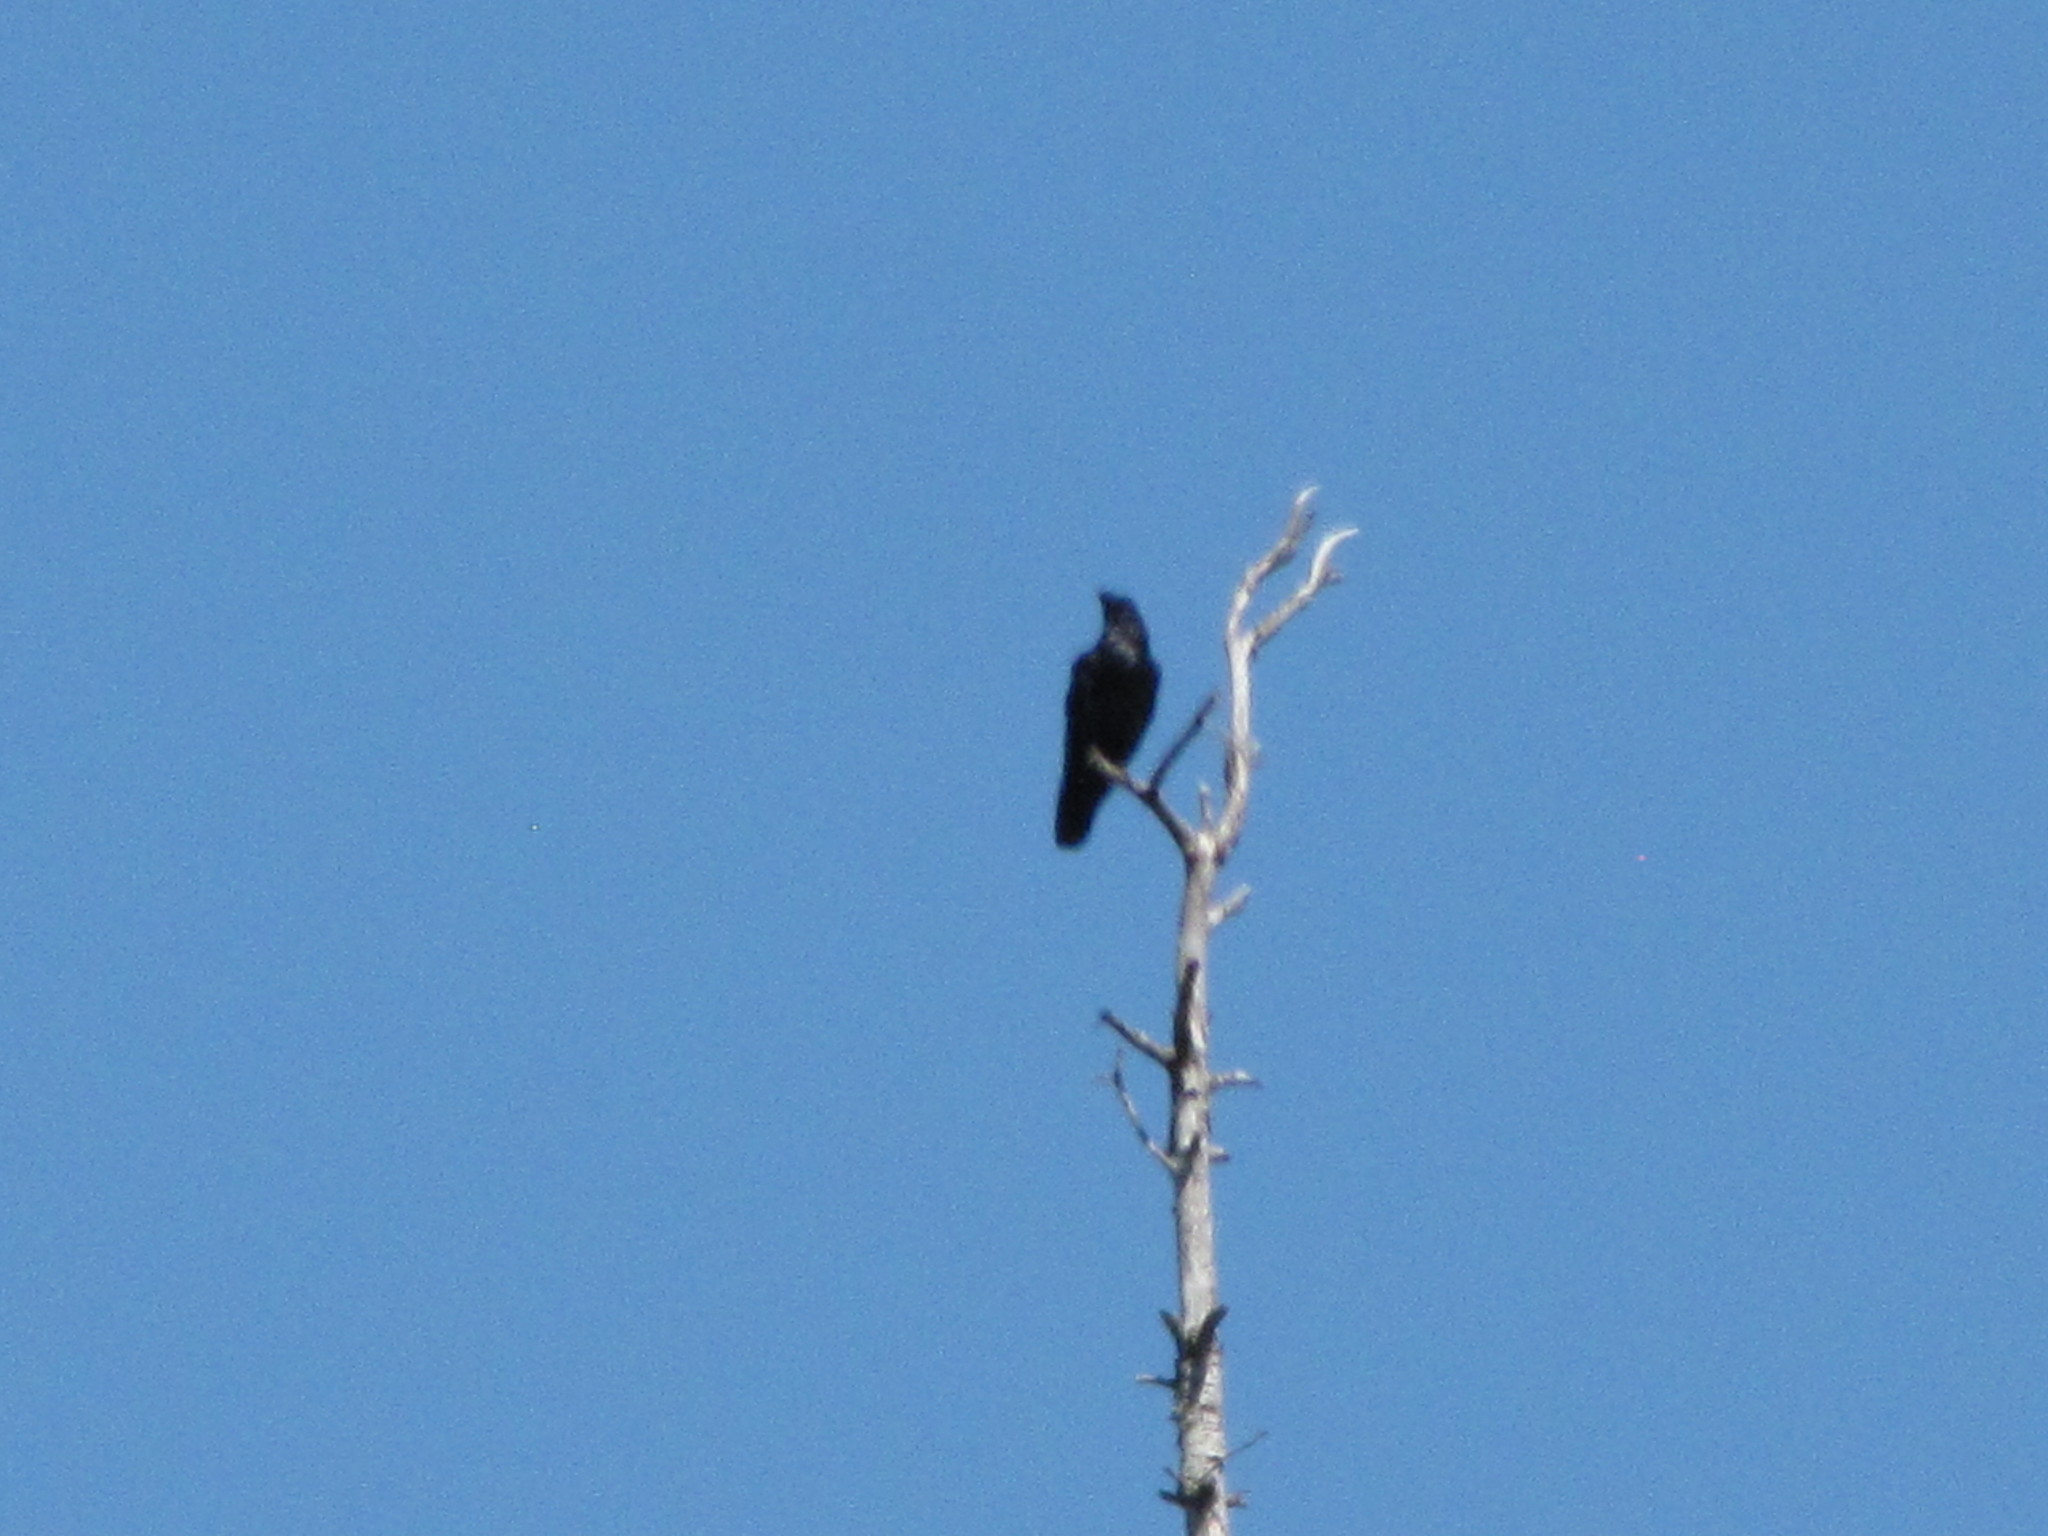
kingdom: Animalia
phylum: Chordata
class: Aves
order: Passeriformes
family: Corvidae
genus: Corvus
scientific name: Corvus corax
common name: Common raven
